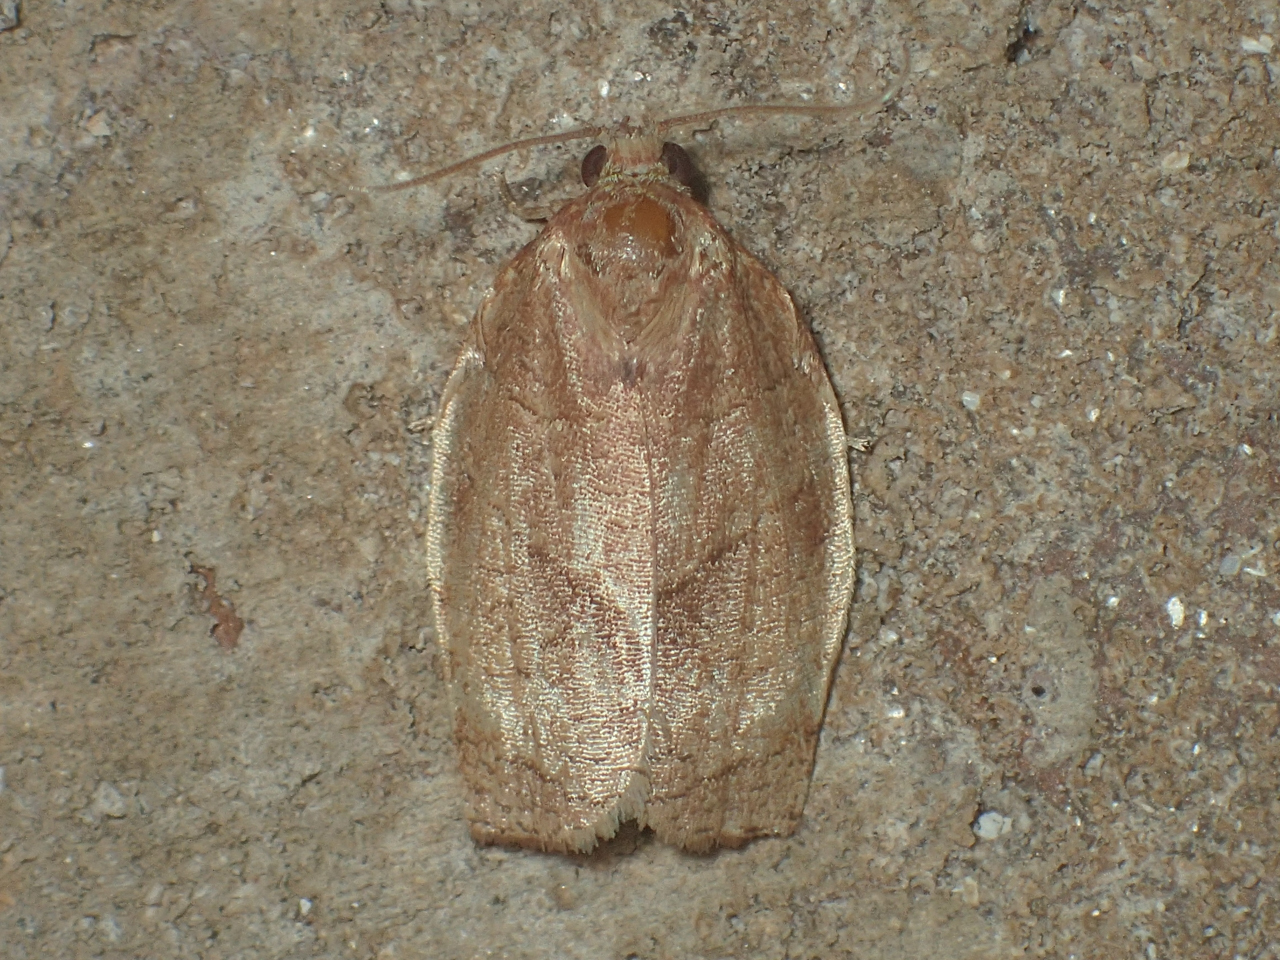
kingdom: Animalia
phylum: Arthropoda
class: Insecta
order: Lepidoptera
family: Tortricidae
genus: Choristoneura
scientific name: Choristoneura rosaceana
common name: Oblique-banded leafroller moth
